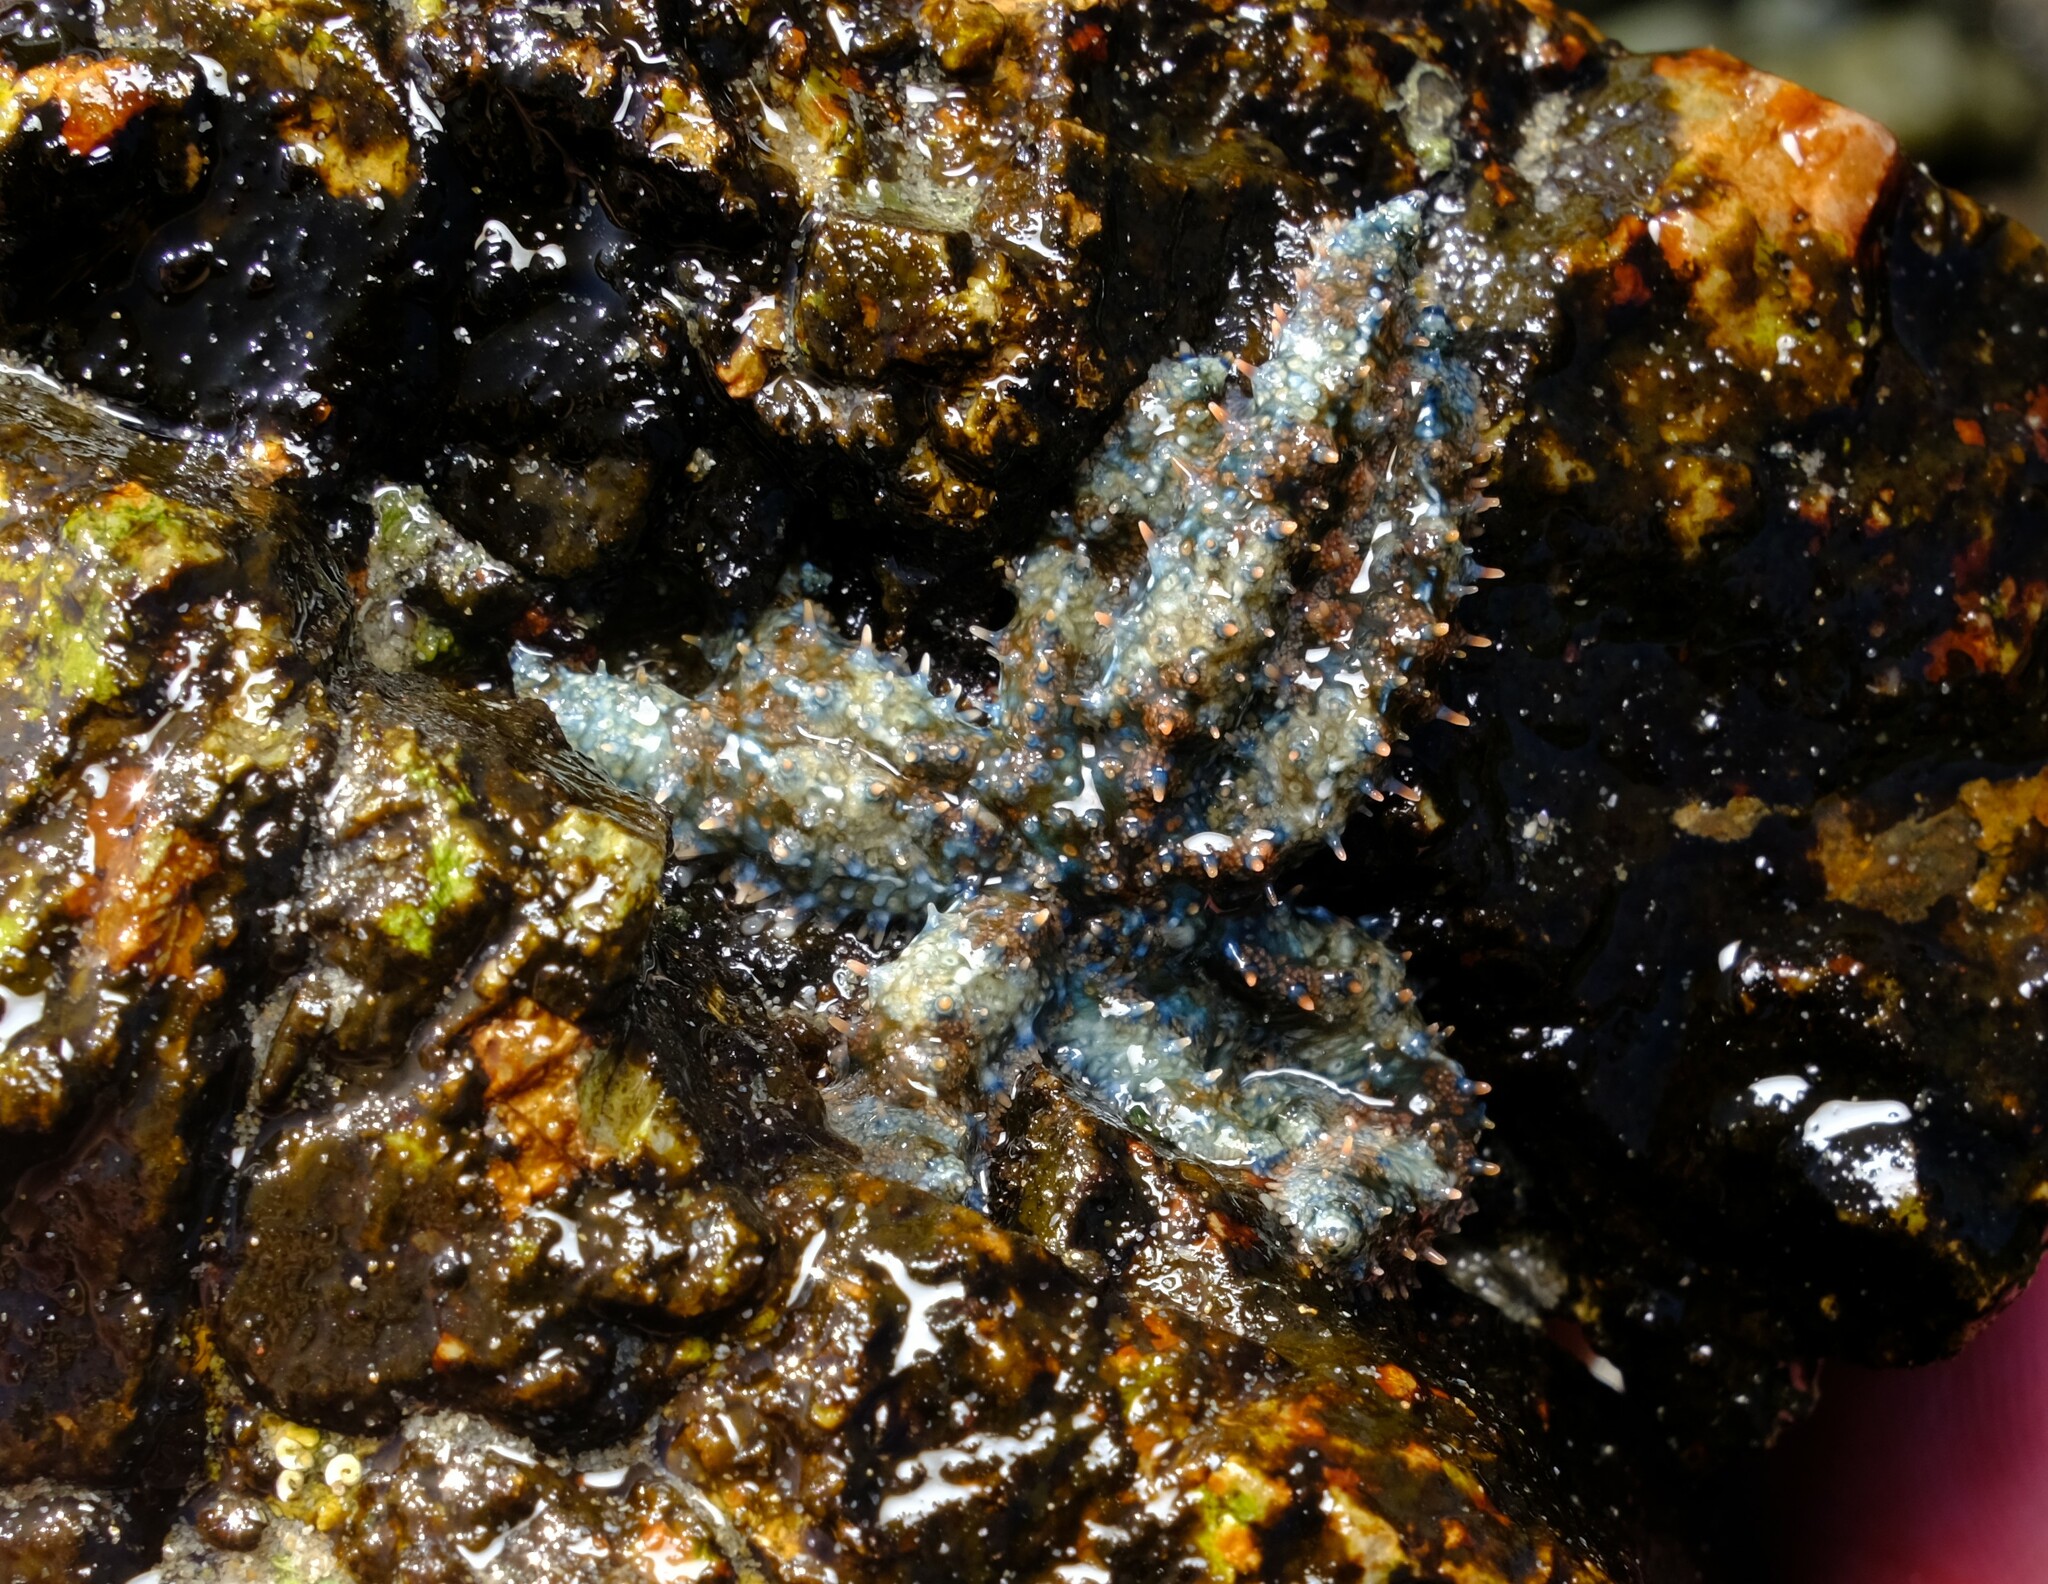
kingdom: Animalia
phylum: Echinodermata
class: Asteroidea
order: Forcipulatida
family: Asteriidae
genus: Coscinasterias
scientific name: Coscinasterias muricata
